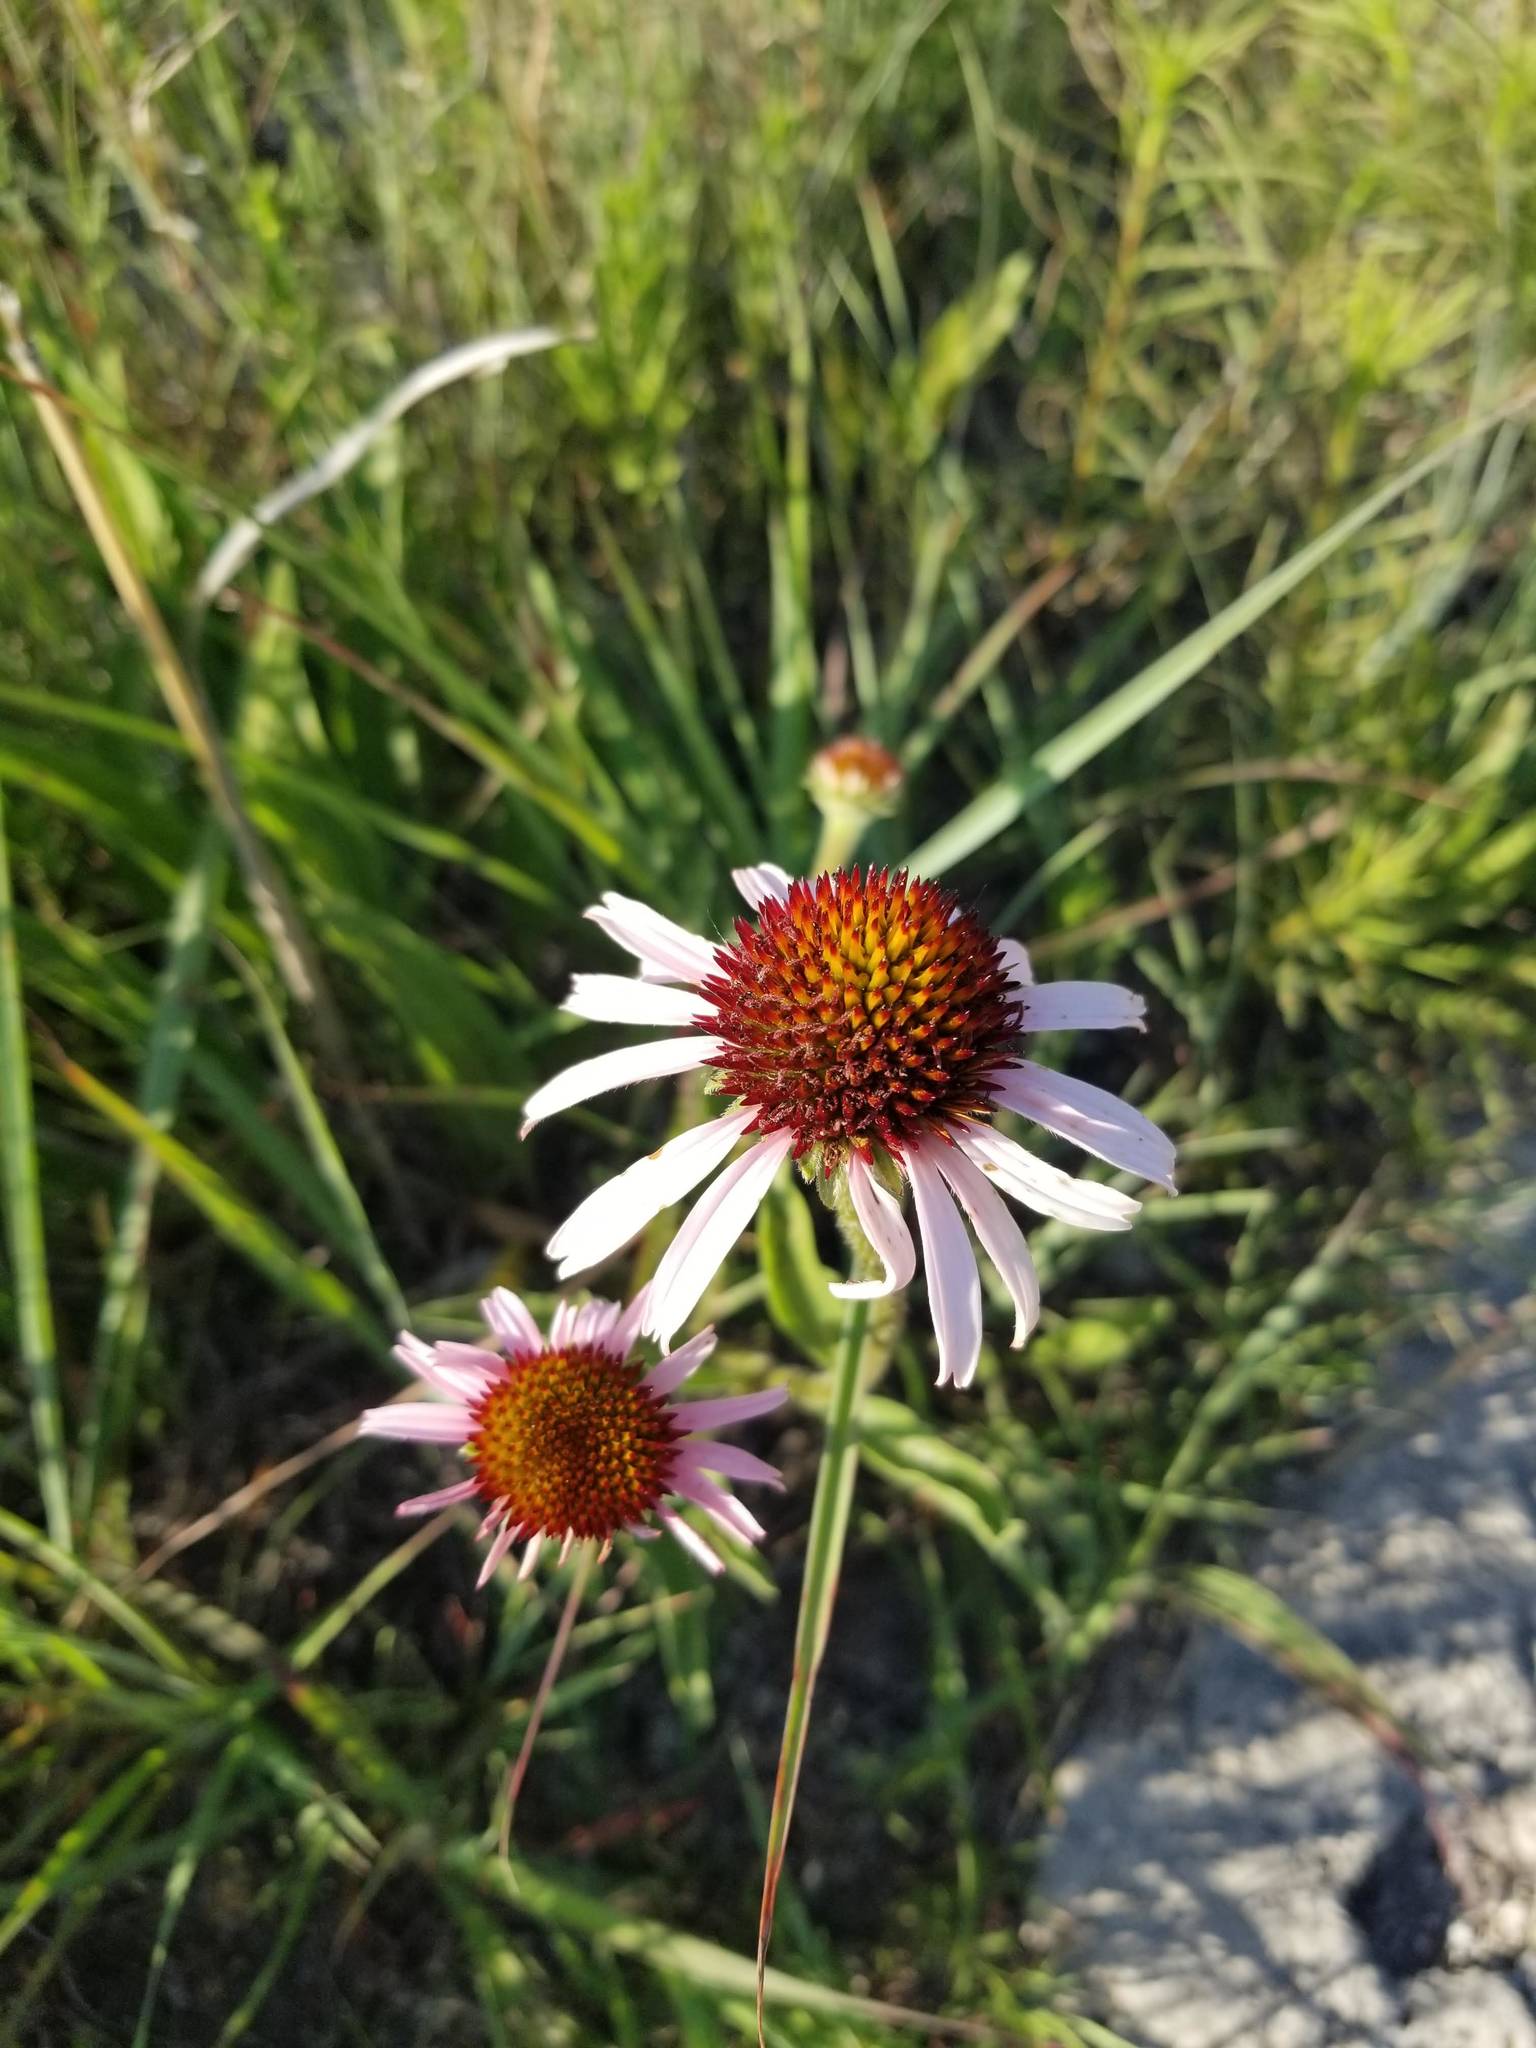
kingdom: Plantae
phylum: Tracheophyta
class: Magnoliopsida
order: Asterales
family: Asteraceae
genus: Echinacea
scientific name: Echinacea angustifolia
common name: Black-sampson echinacea
